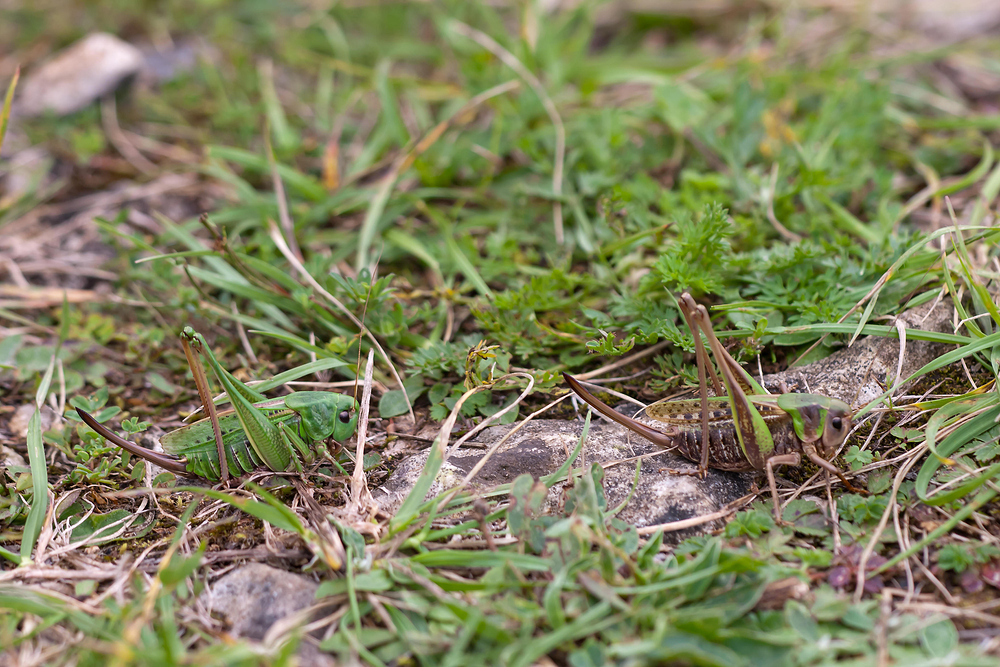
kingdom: Animalia
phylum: Arthropoda
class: Insecta
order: Orthoptera
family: Tettigoniidae
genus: Decticus
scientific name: Decticus verrucivorus
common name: Wart-biter
